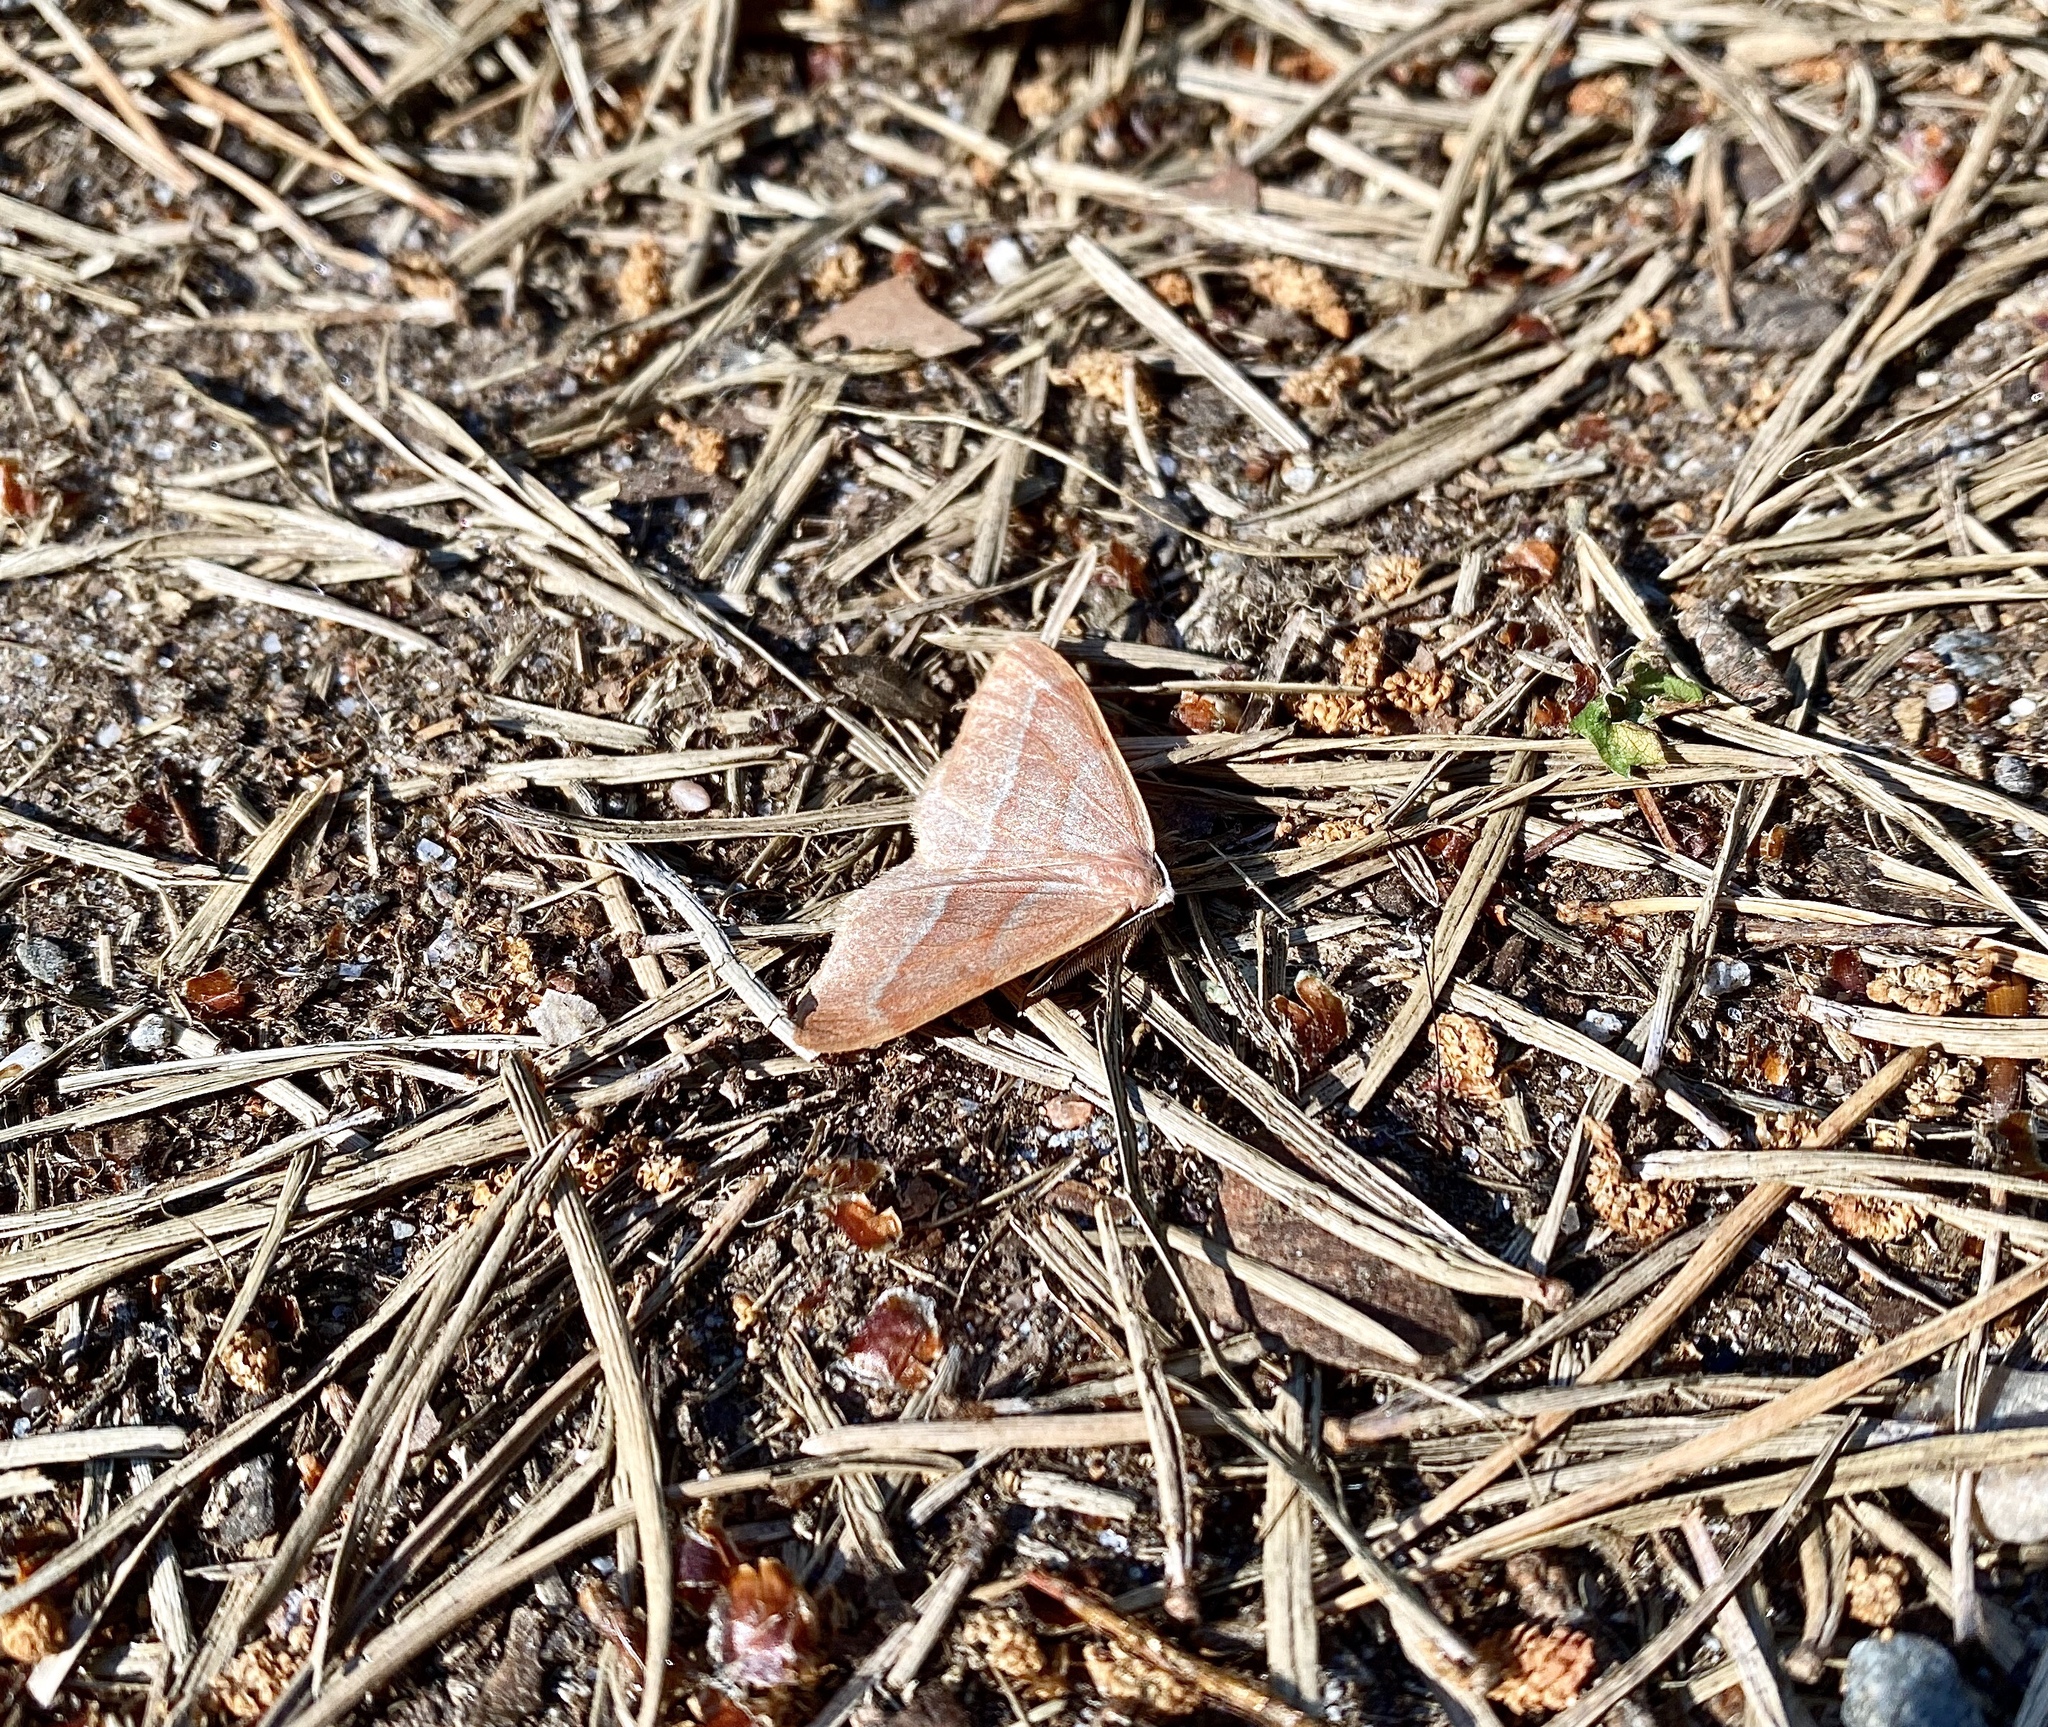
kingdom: Animalia
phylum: Arthropoda
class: Insecta
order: Lepidoptera
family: Geometridae
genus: Hylaea
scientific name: Hylaea fasciaria
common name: Barred red
